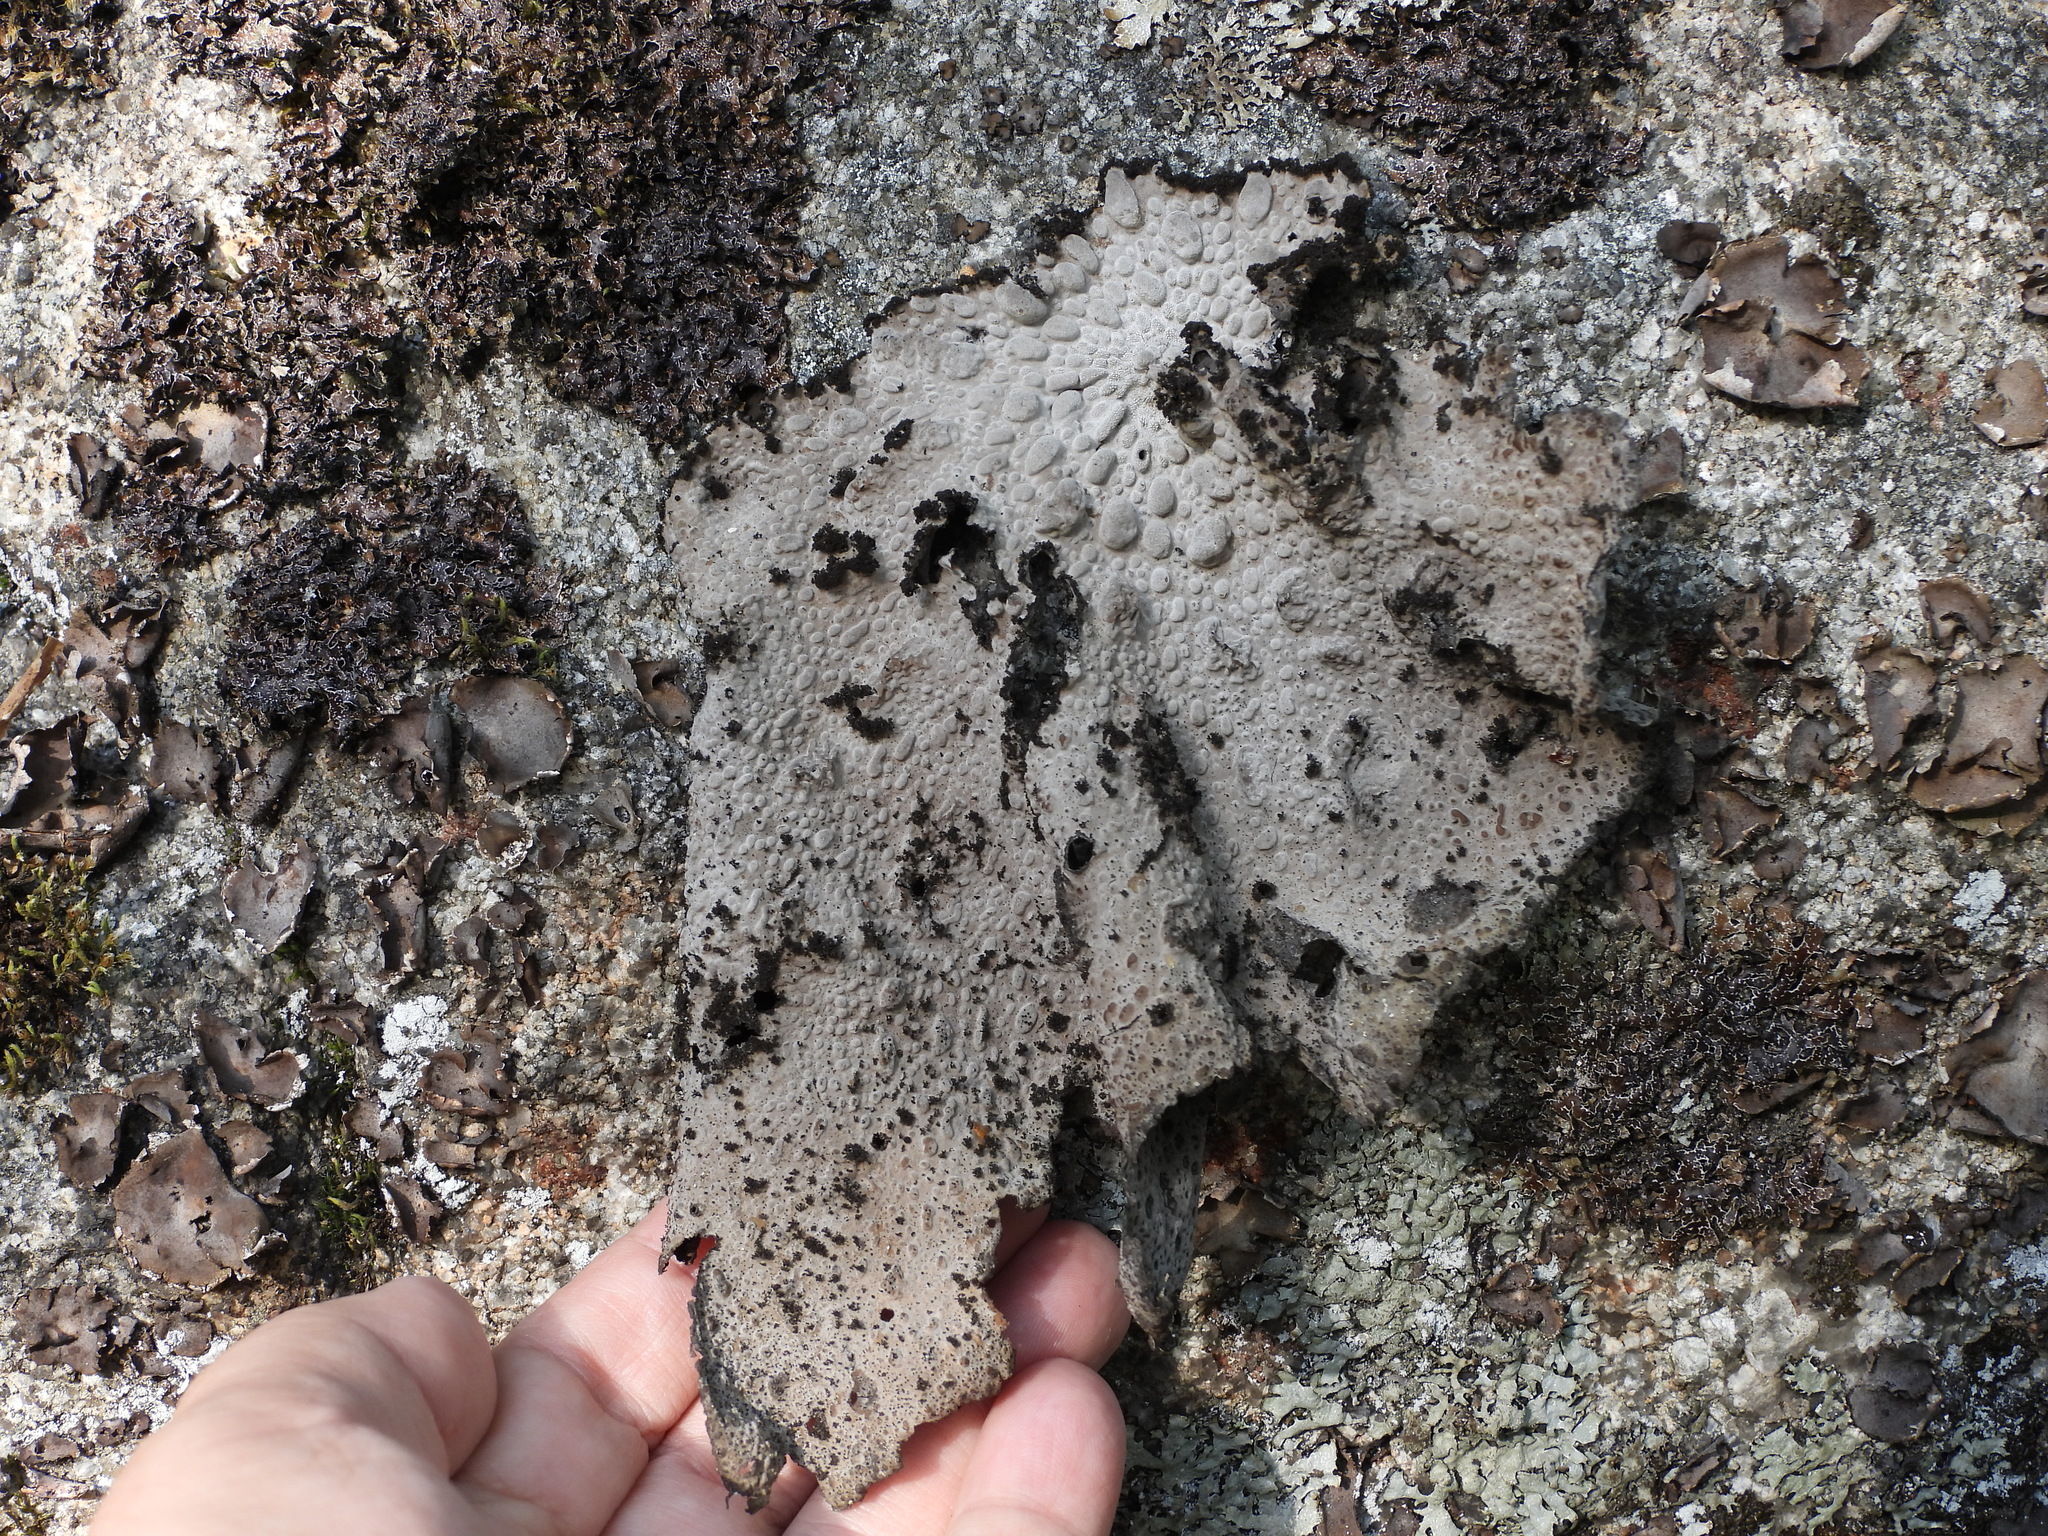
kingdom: Fungi
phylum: Ascomycota
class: Lecanoromycetes
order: Umbilicariales
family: Umbilicariaceae
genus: Lasallia
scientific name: Lasallia pustulata
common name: Blistered toadskin lichen
